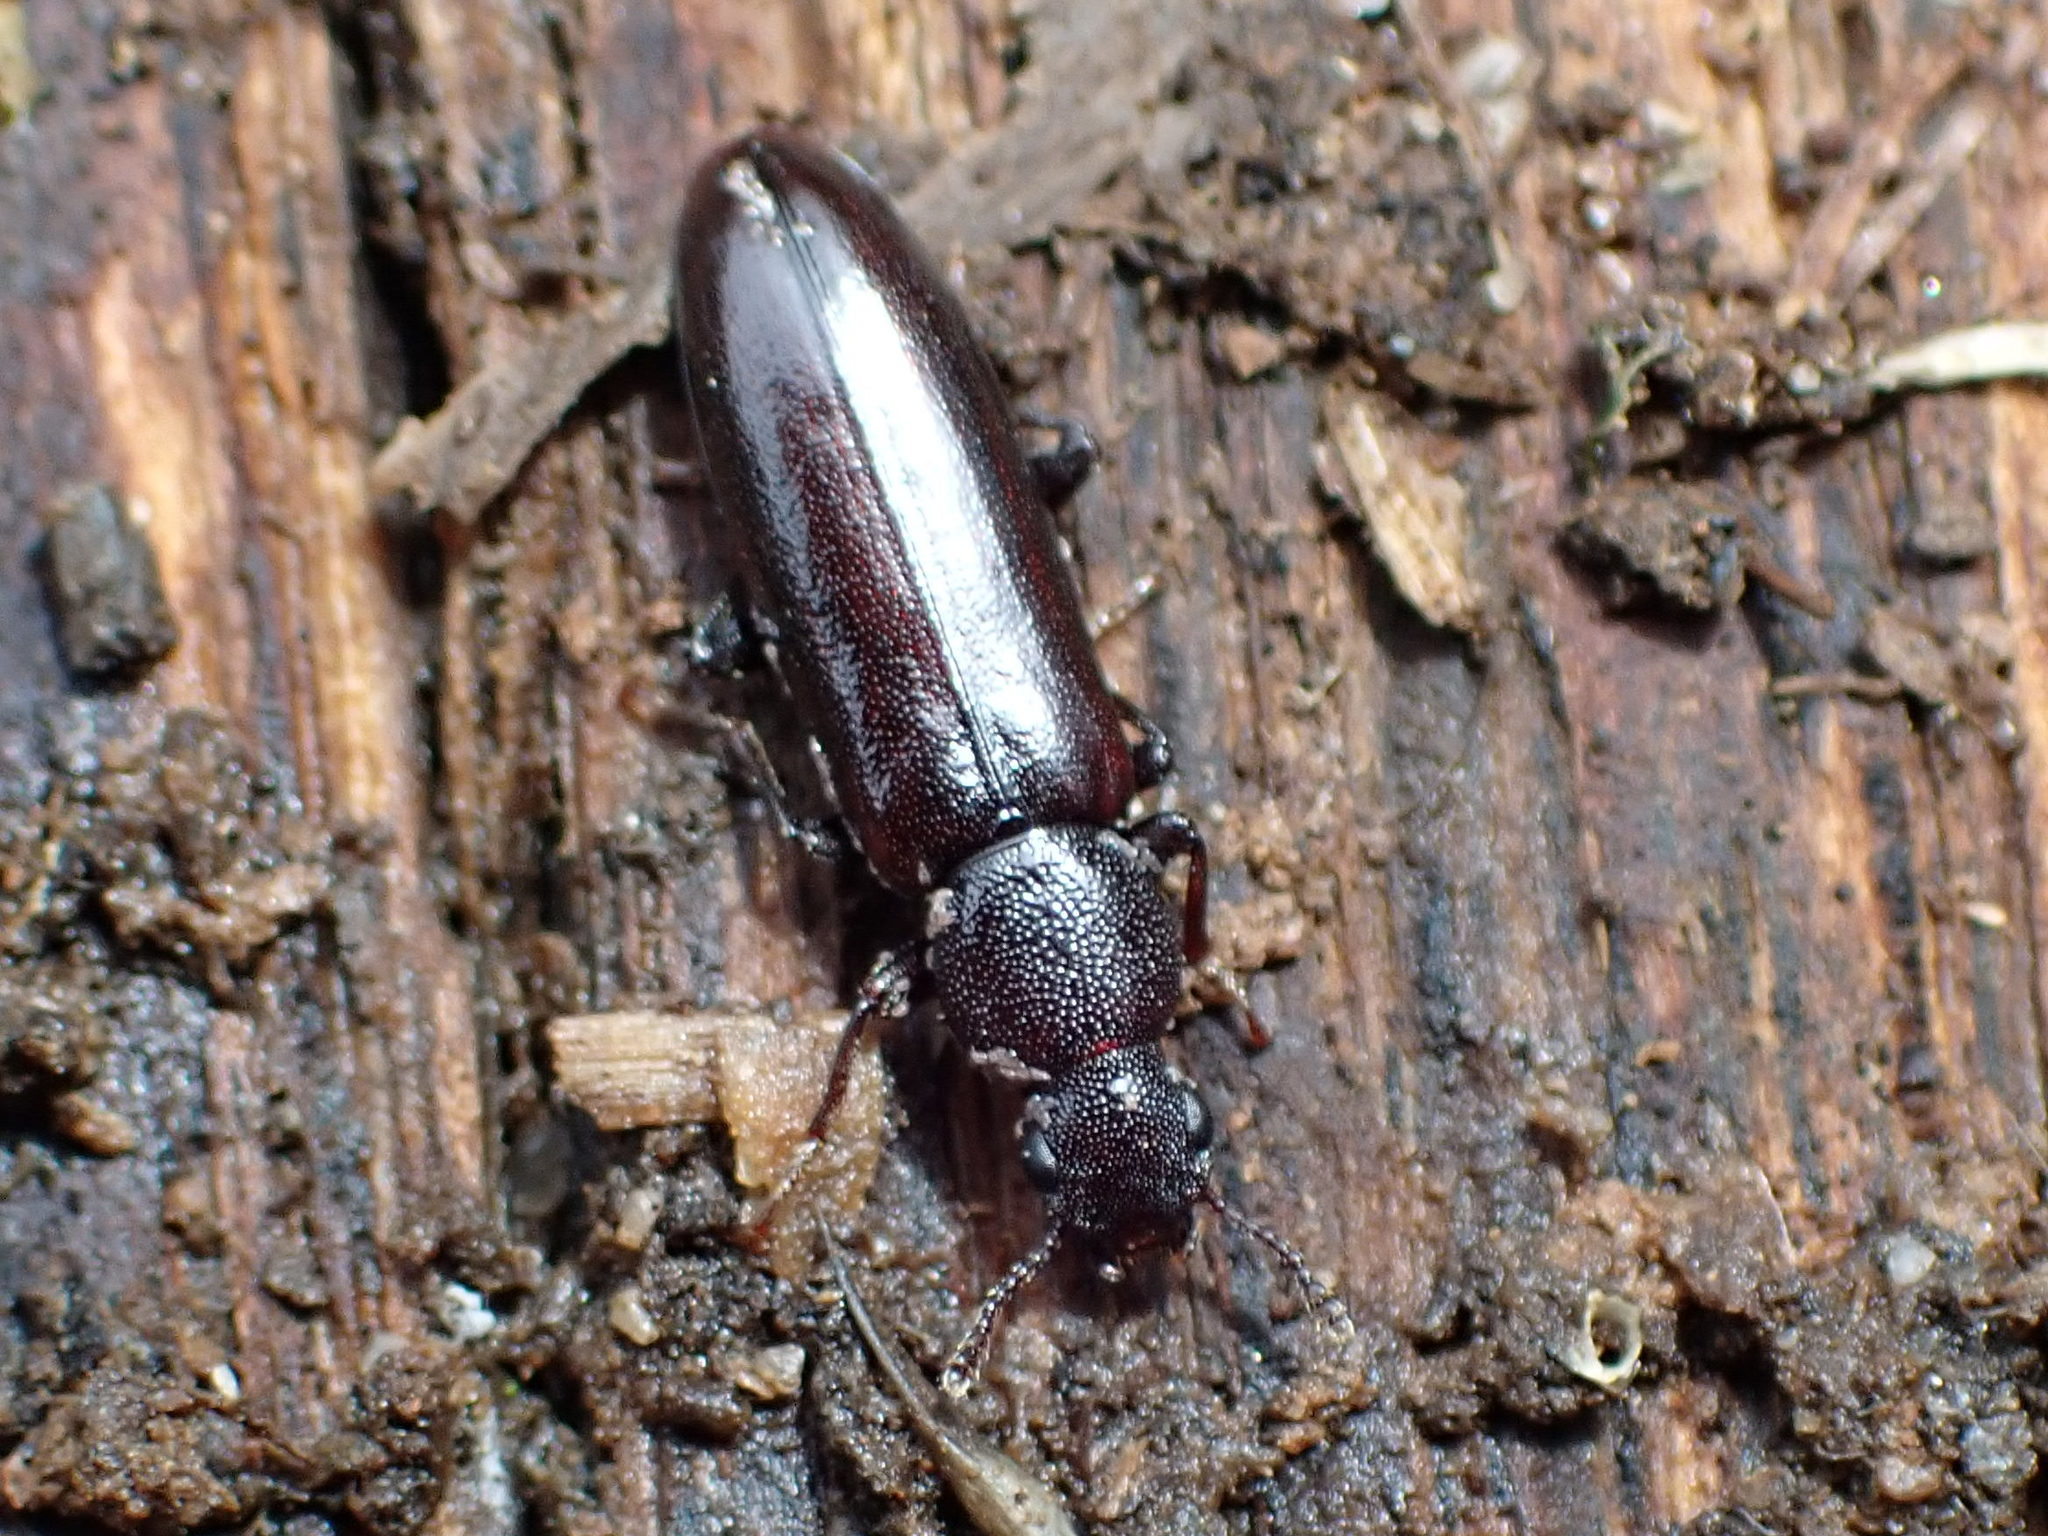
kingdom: Animalia
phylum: Arthropoda
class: Insecta
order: Coleoptera
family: Boridae
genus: Boros
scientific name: Boros unicolor
